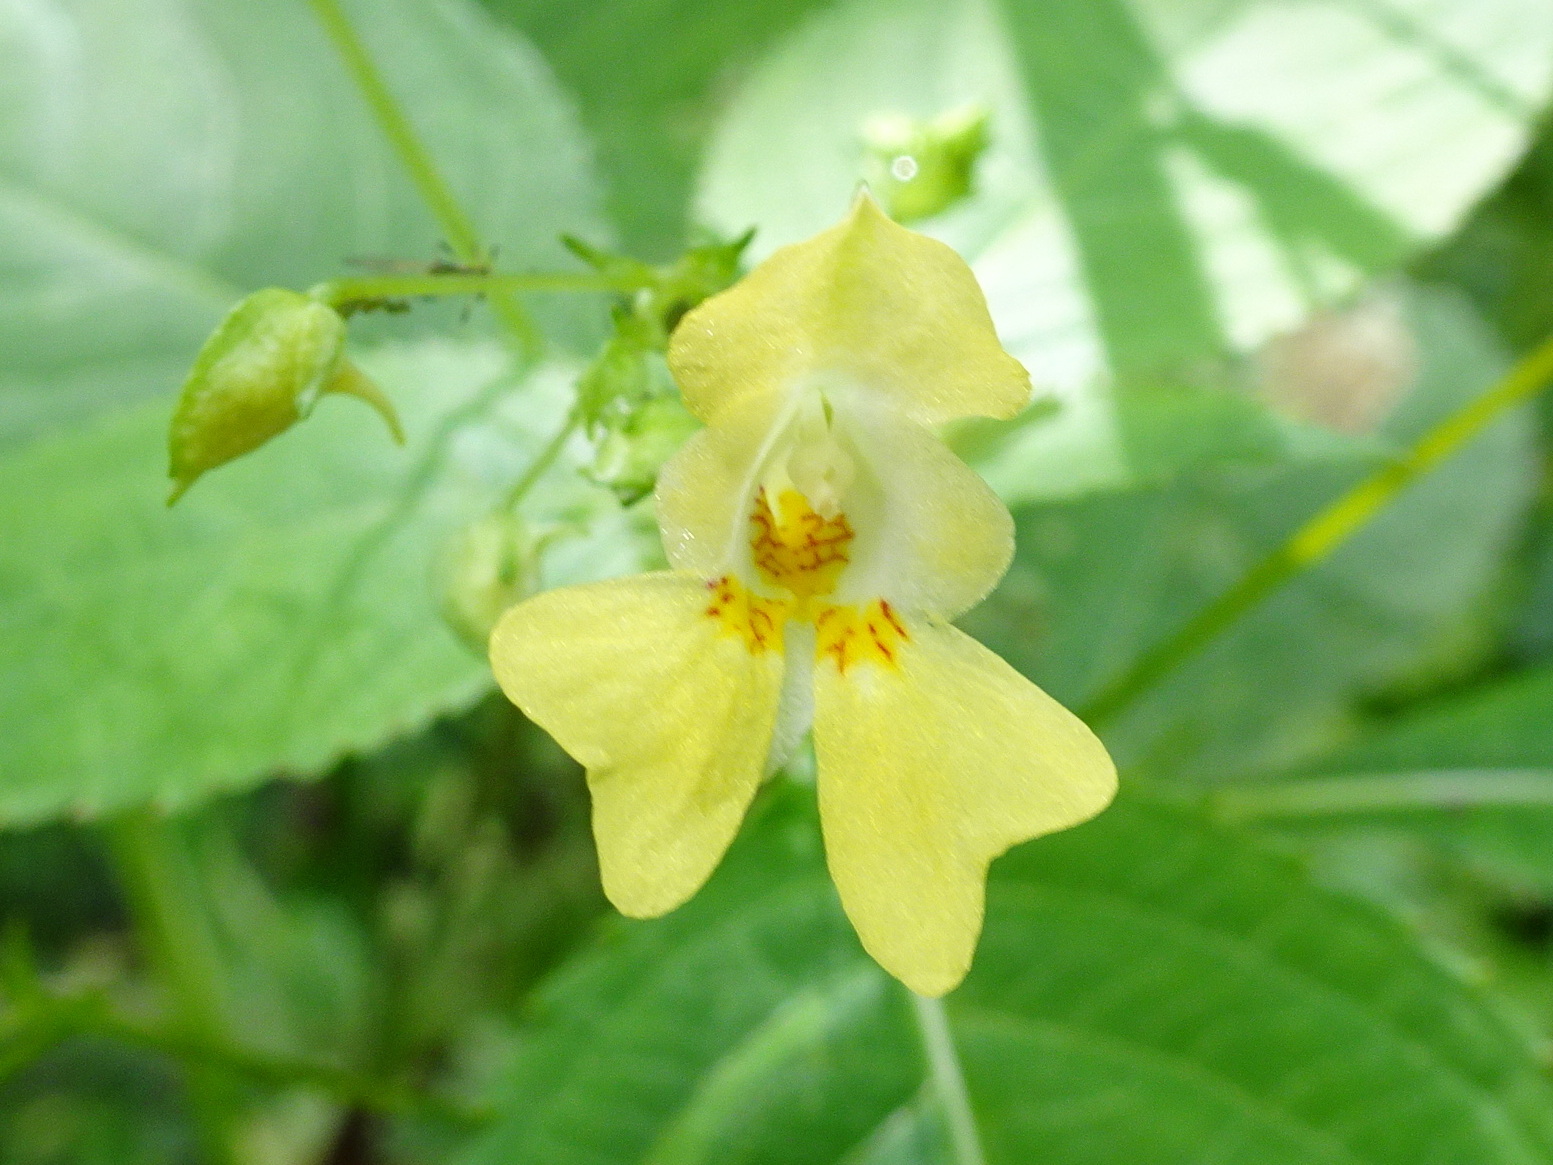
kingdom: Plantae
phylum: Tracheophyta
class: Magnoliopsida
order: Ericales
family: Balsaminaceae
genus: Impatiens
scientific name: Impatiens parviflora
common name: Small balsam
